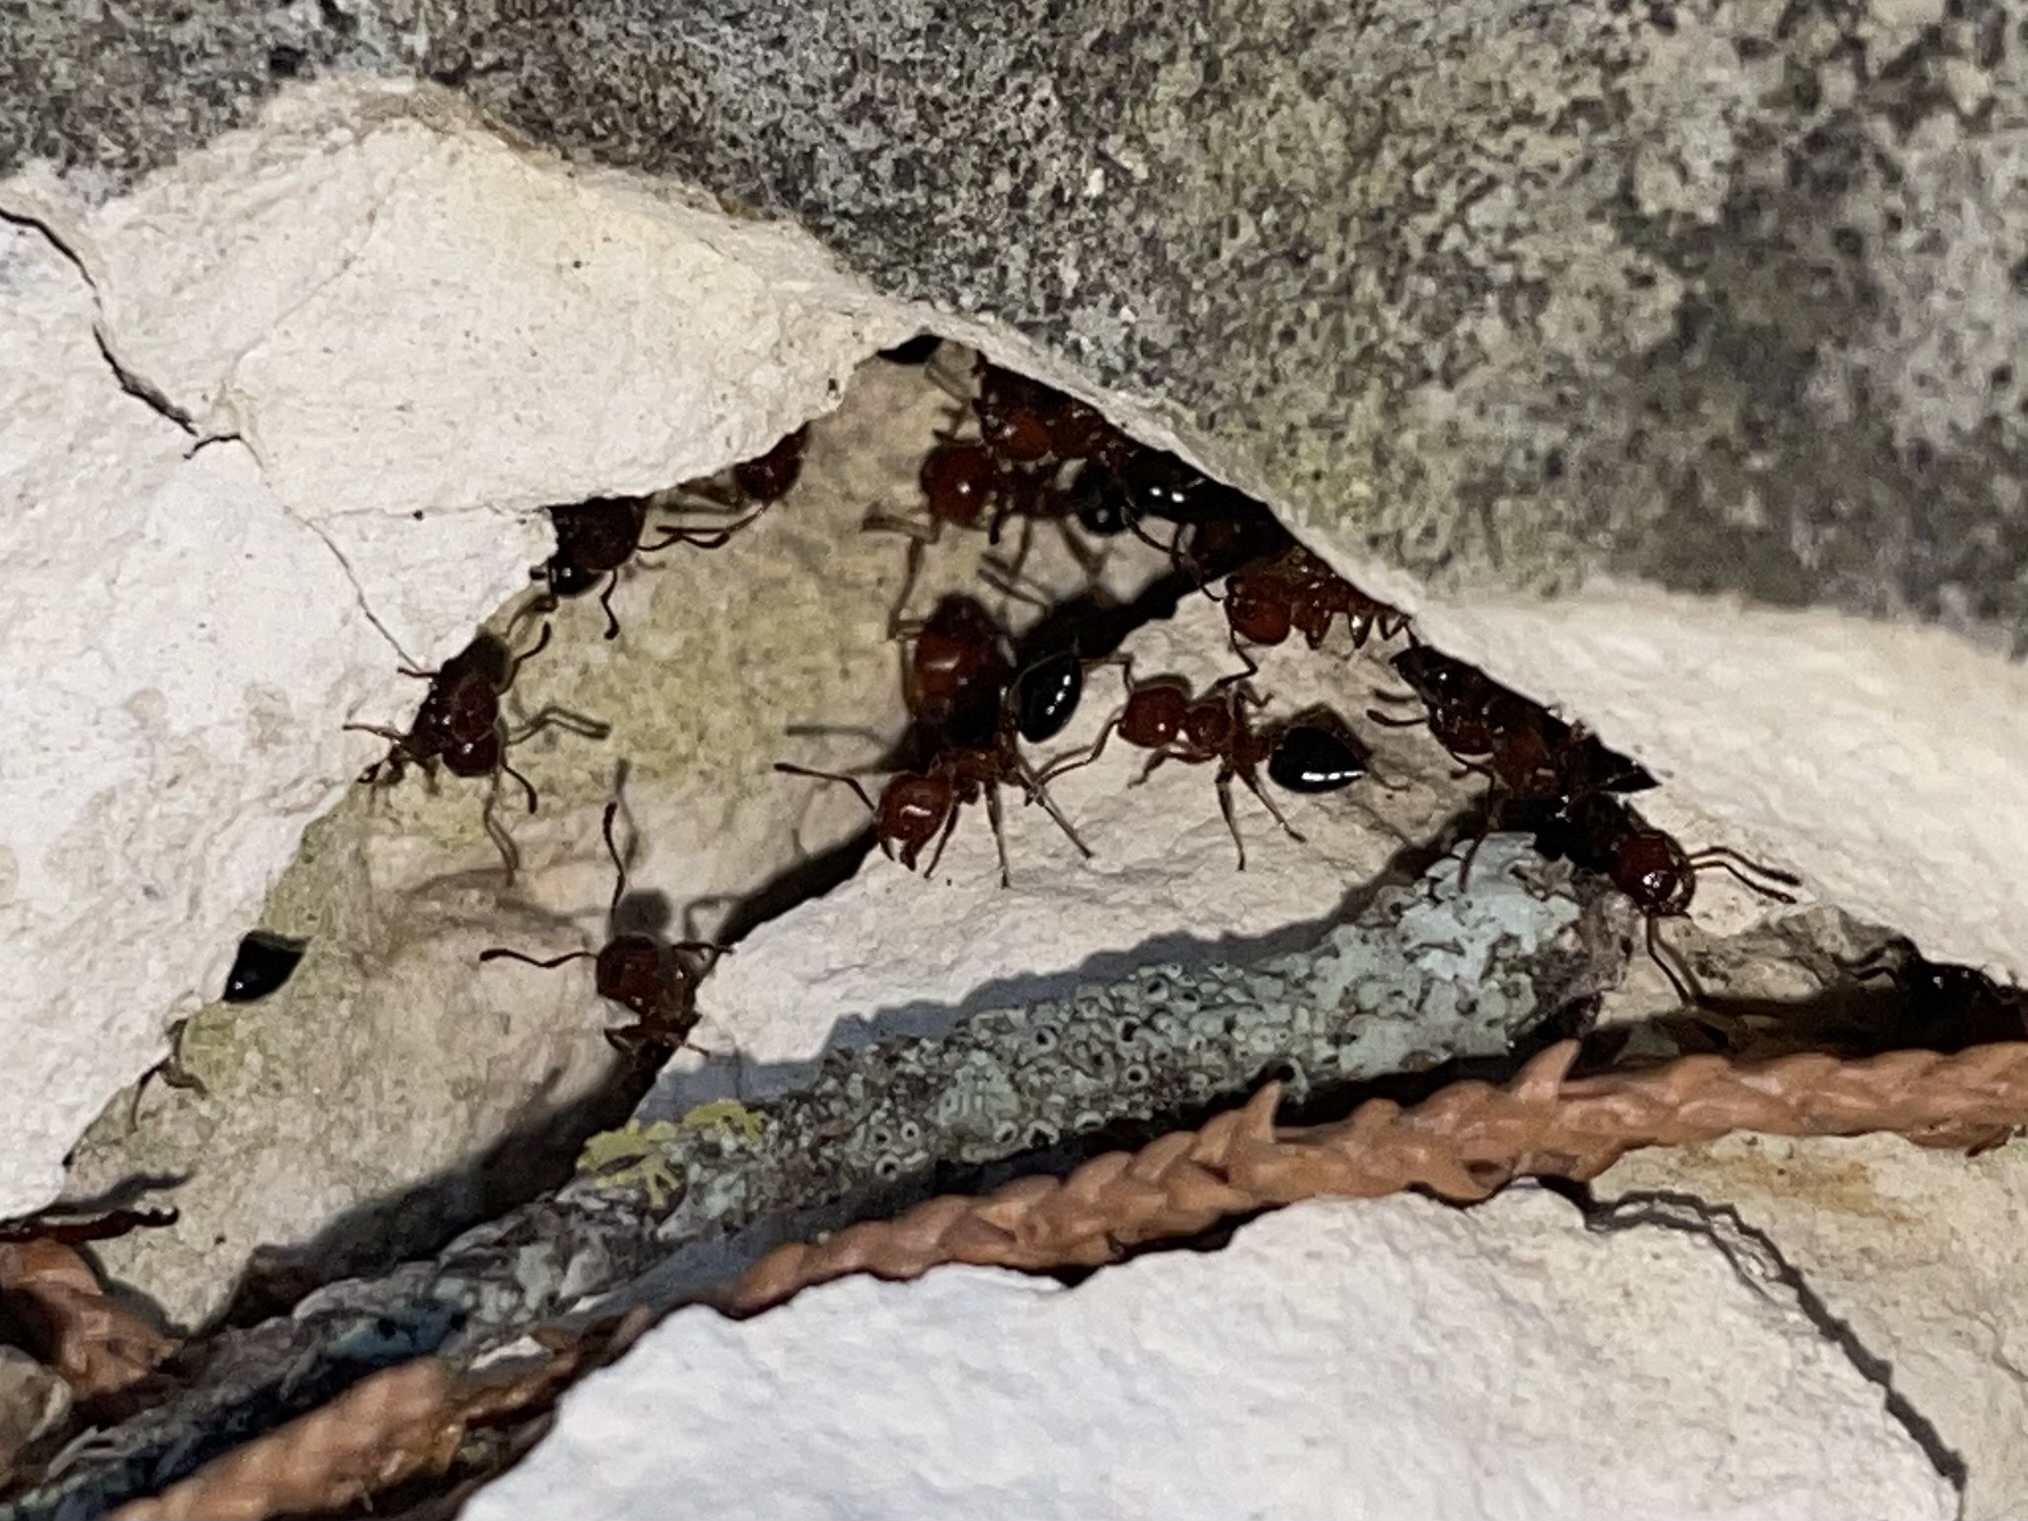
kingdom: Animalia
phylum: Arthropoda
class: Insecta
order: Hymenoptera
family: Formicidae
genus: Crematogaster
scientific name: Crematogaster laeviuscula
